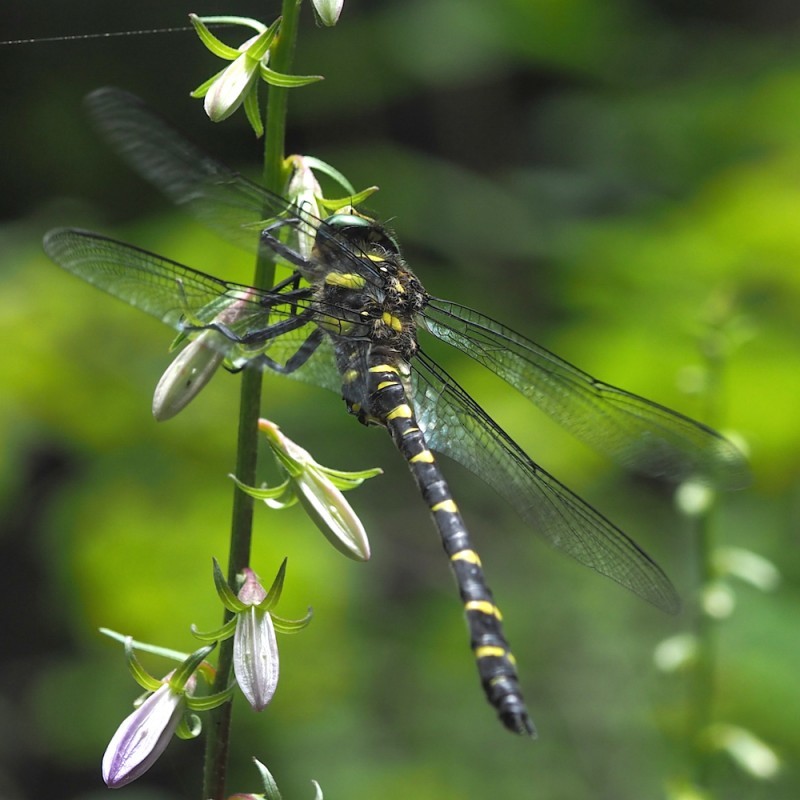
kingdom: Animalia
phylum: Arthropoda
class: Insecta
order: Odonata
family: Cordulegastridae
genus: Cordulegaster
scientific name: Cordulegaster bidentata
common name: Sombre goldenring
